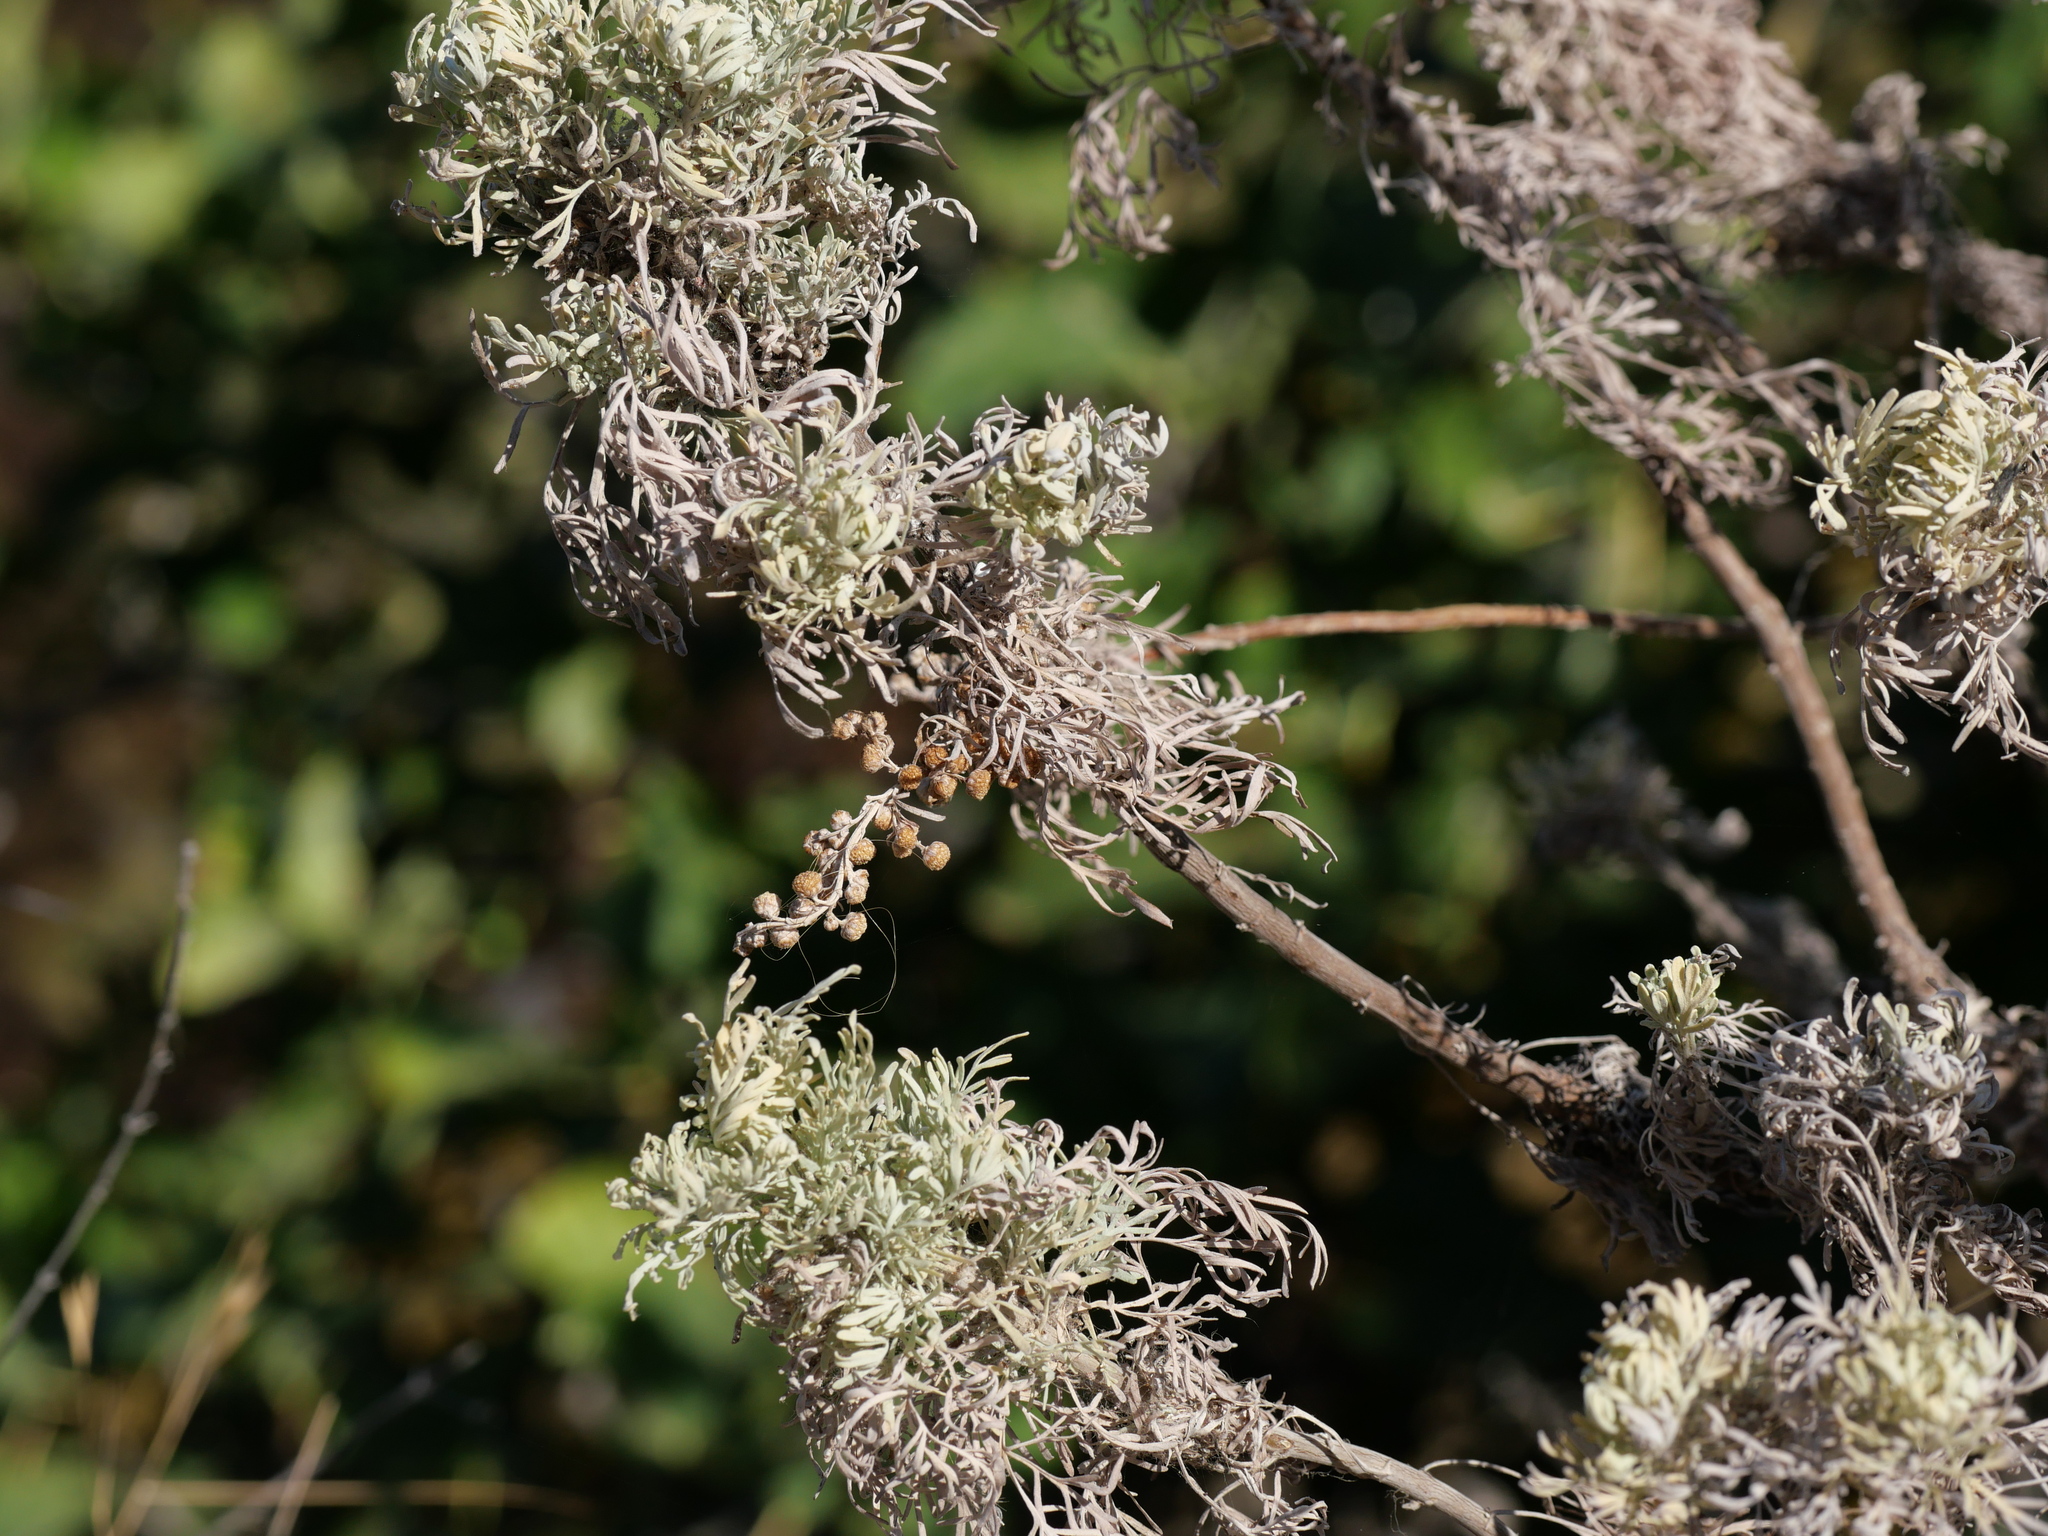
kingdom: Plantae
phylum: Tracheophyta
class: Magnoliopsida
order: Asterales
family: Asteraceae
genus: Artemisia
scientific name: Artemisia arborescens
